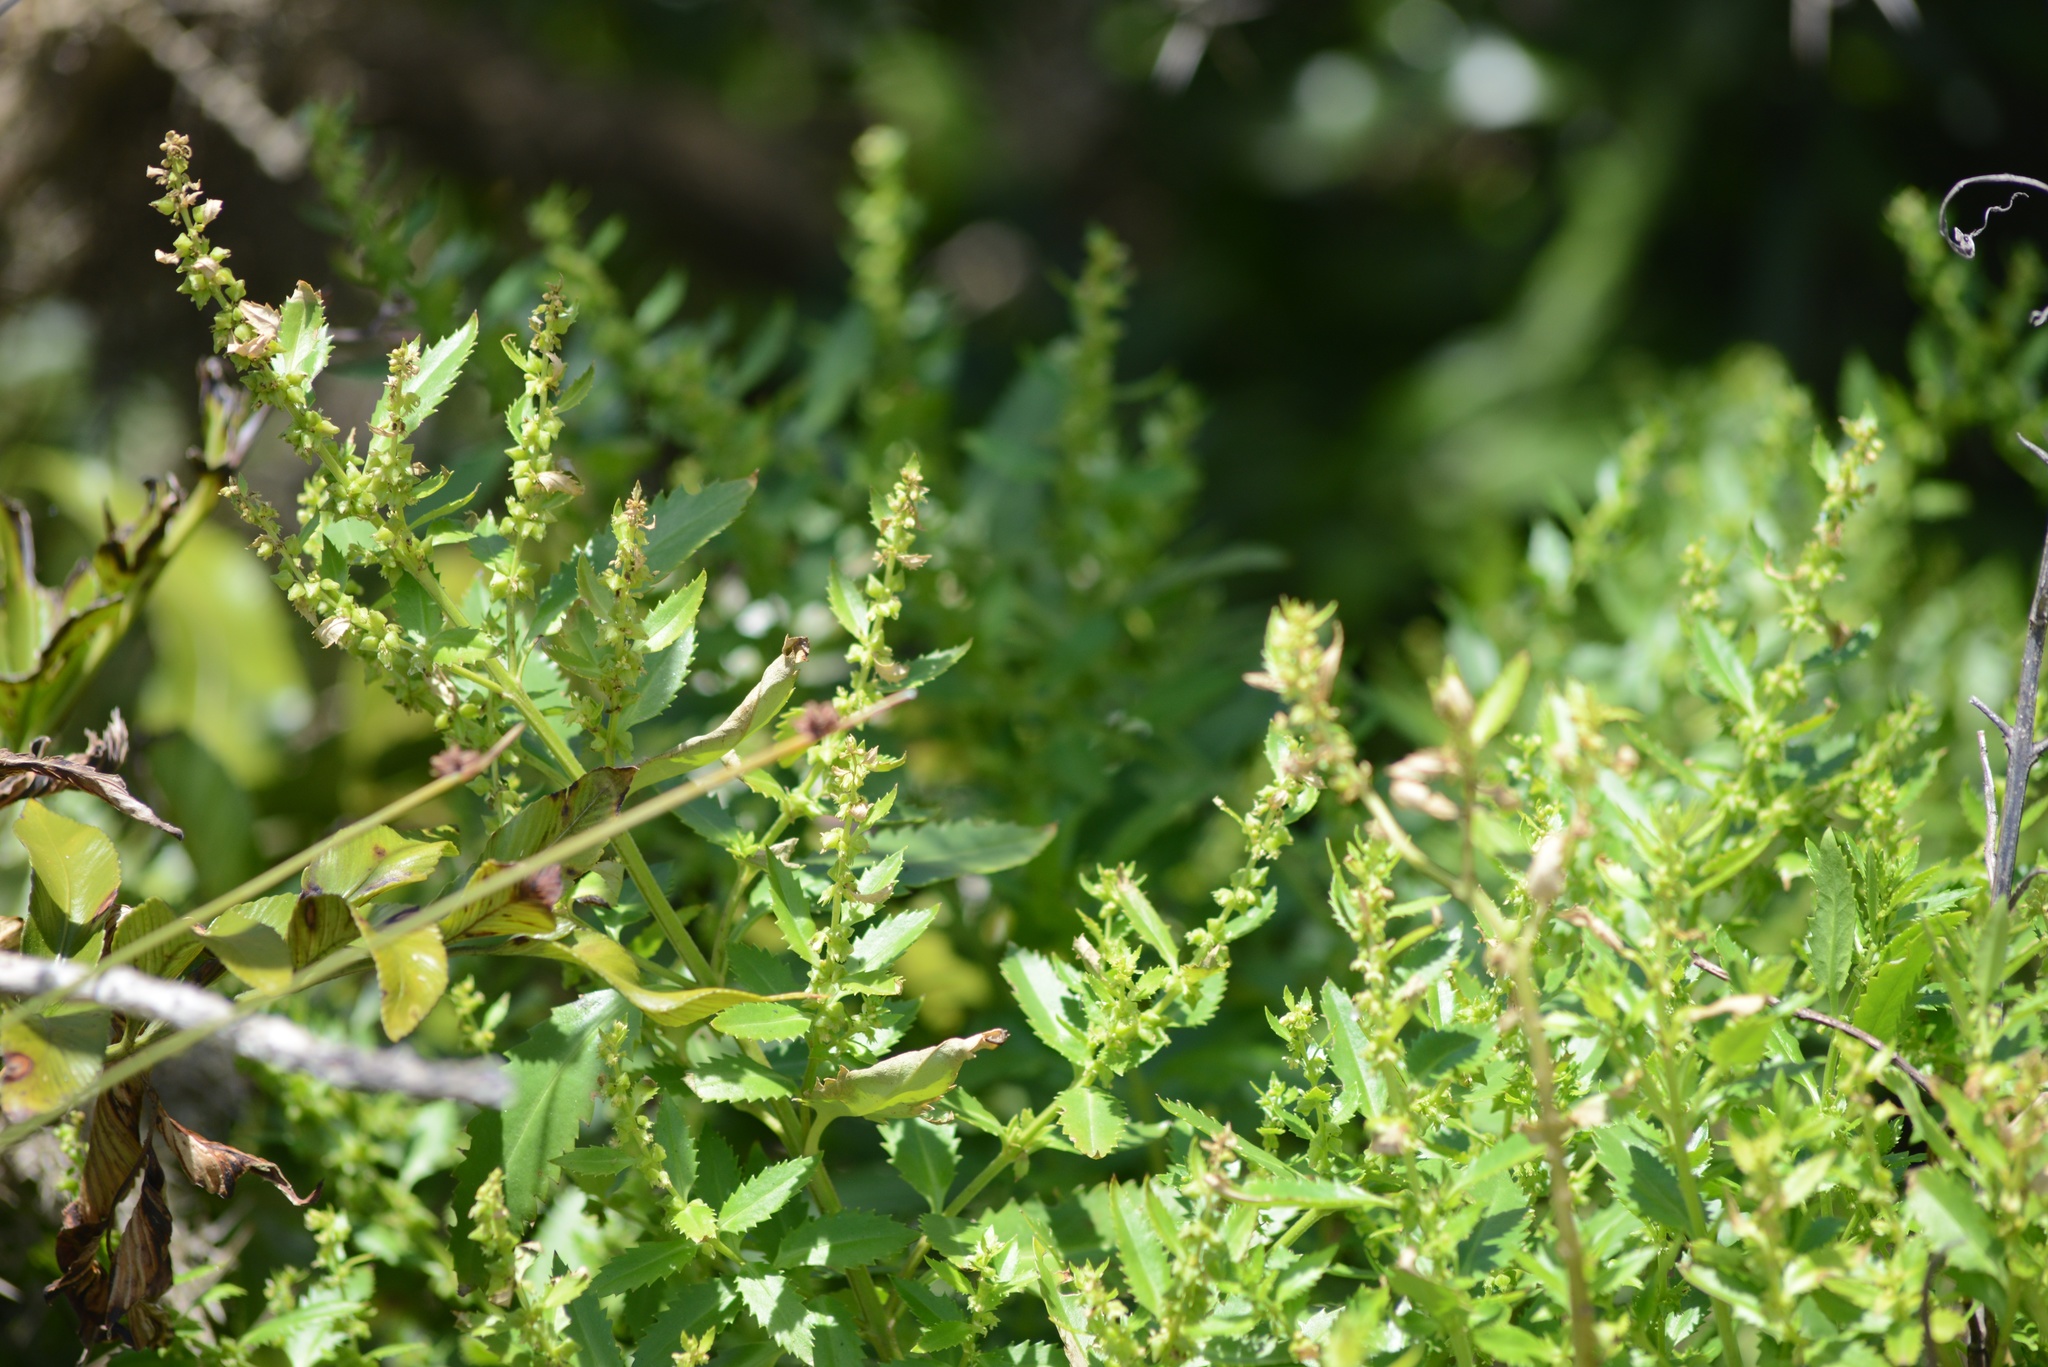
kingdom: Plantae
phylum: Tracheophyta
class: Magnoliopsida
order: Saxifragales
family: Haloragaceae
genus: Haloragis
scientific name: Haloragis erecta
